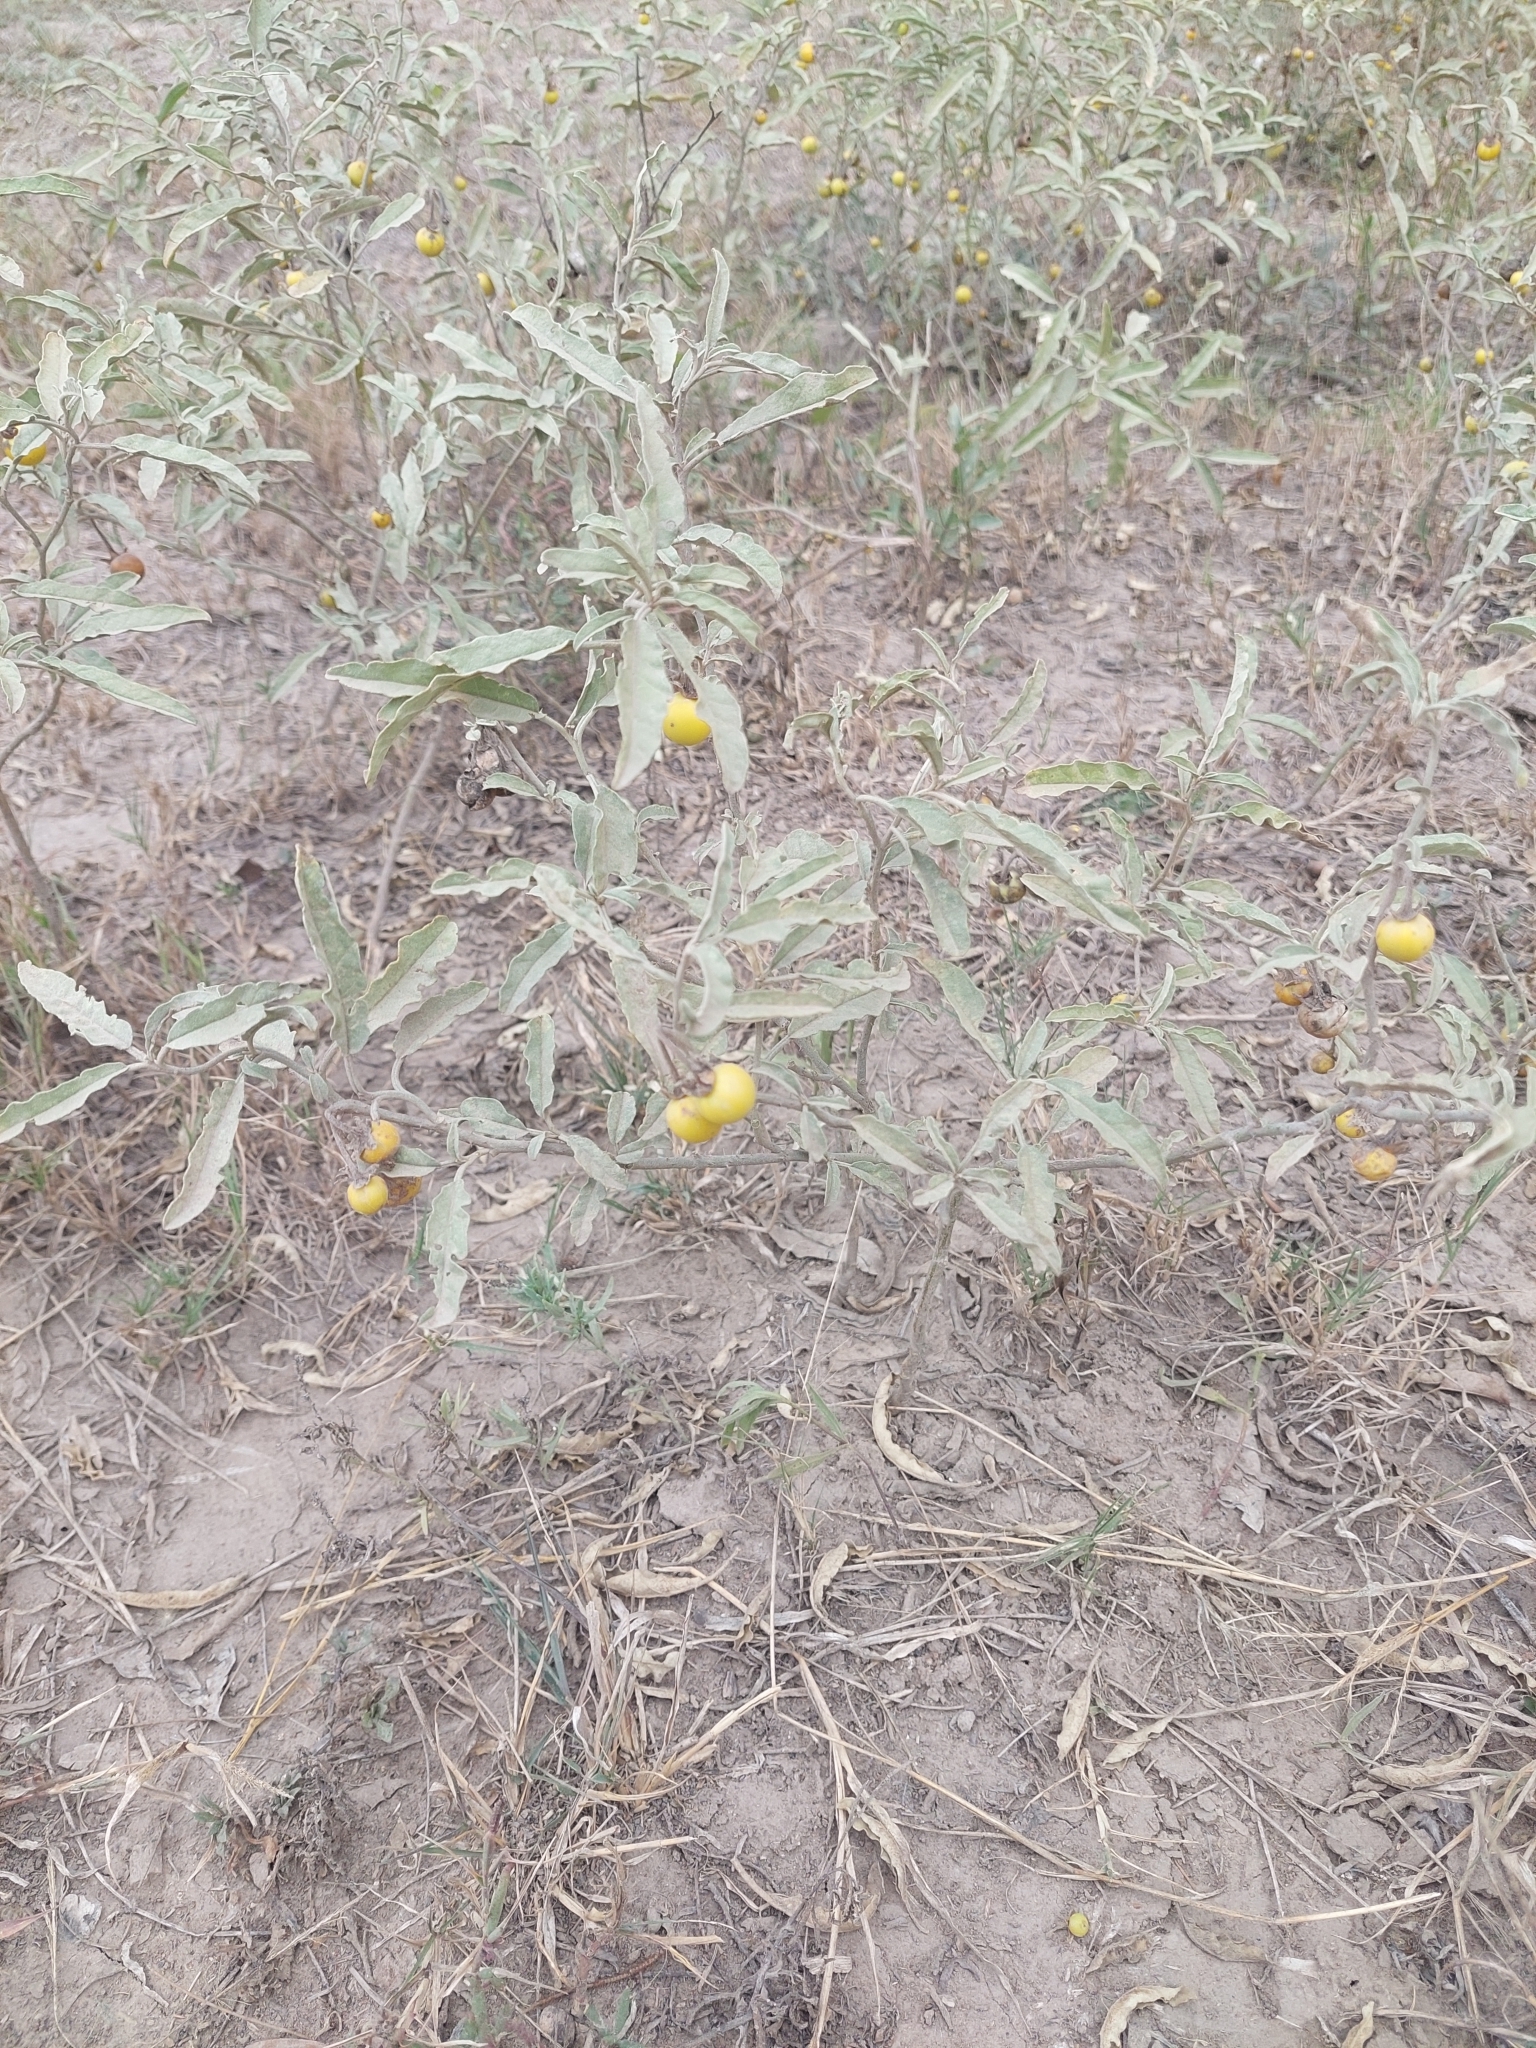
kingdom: Plantae
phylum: Tracheophyta
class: Magnoliopsida
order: Solanales
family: Solanaceae
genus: Solanum
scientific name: Solanum elaeagnifolium
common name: Silverleaf nightshade
